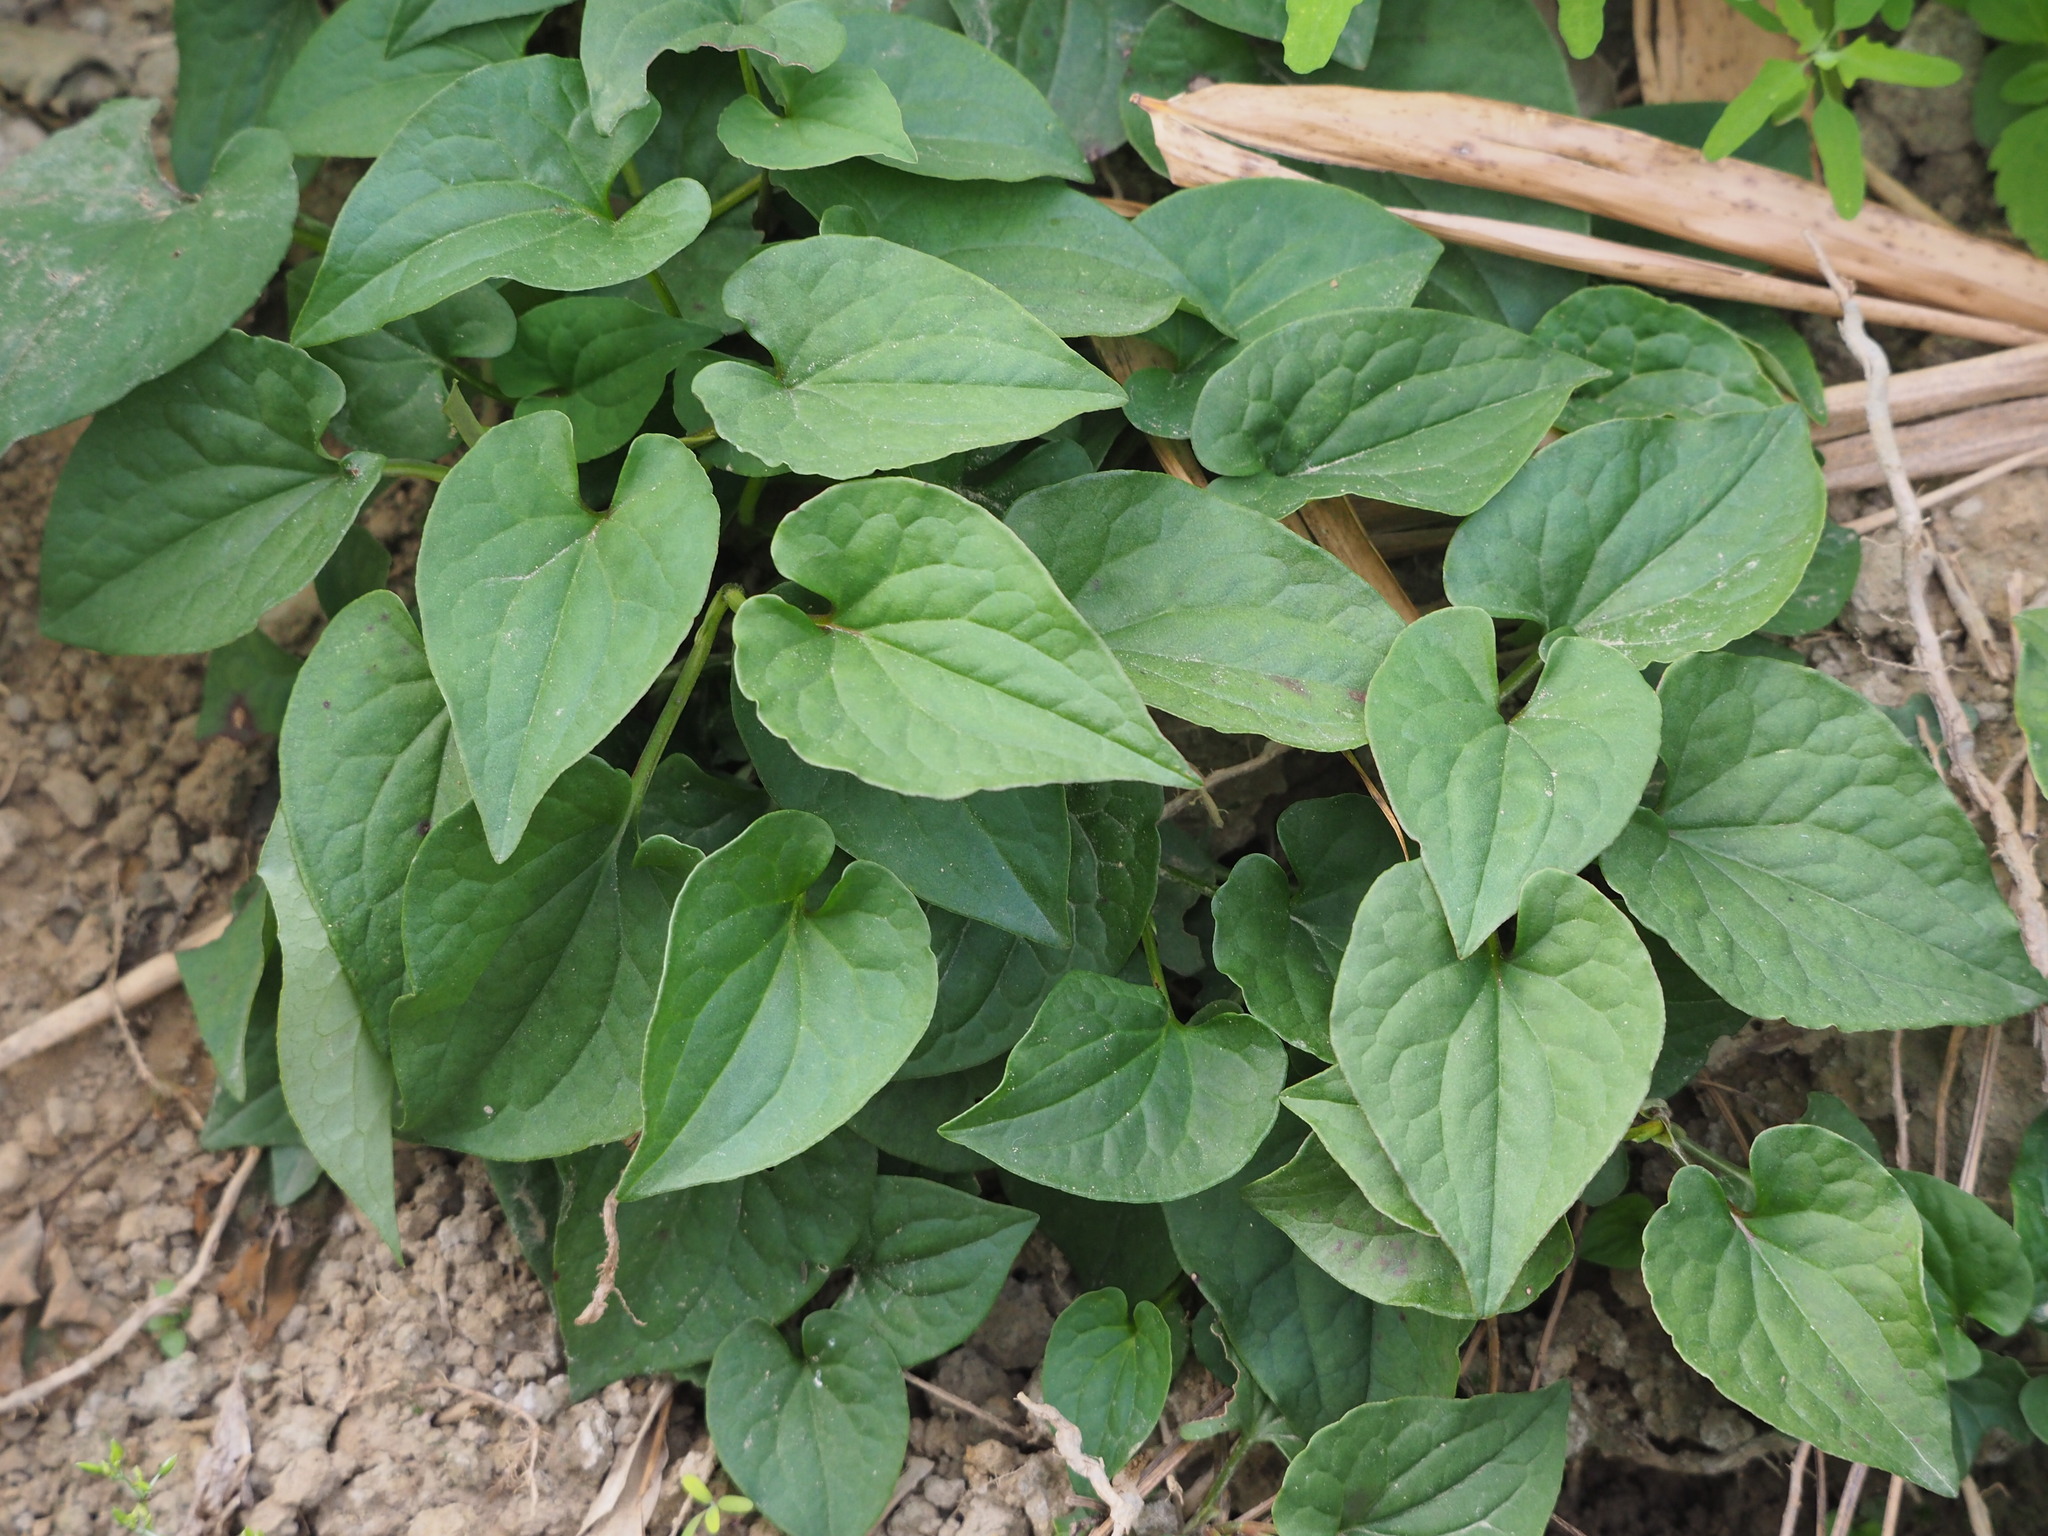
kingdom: Plantae
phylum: Tracheophyta
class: Magnoliopsida
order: Piperales
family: Saururaceae
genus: Houttuynia
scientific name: Houttuynia cordata
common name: Chameleon
